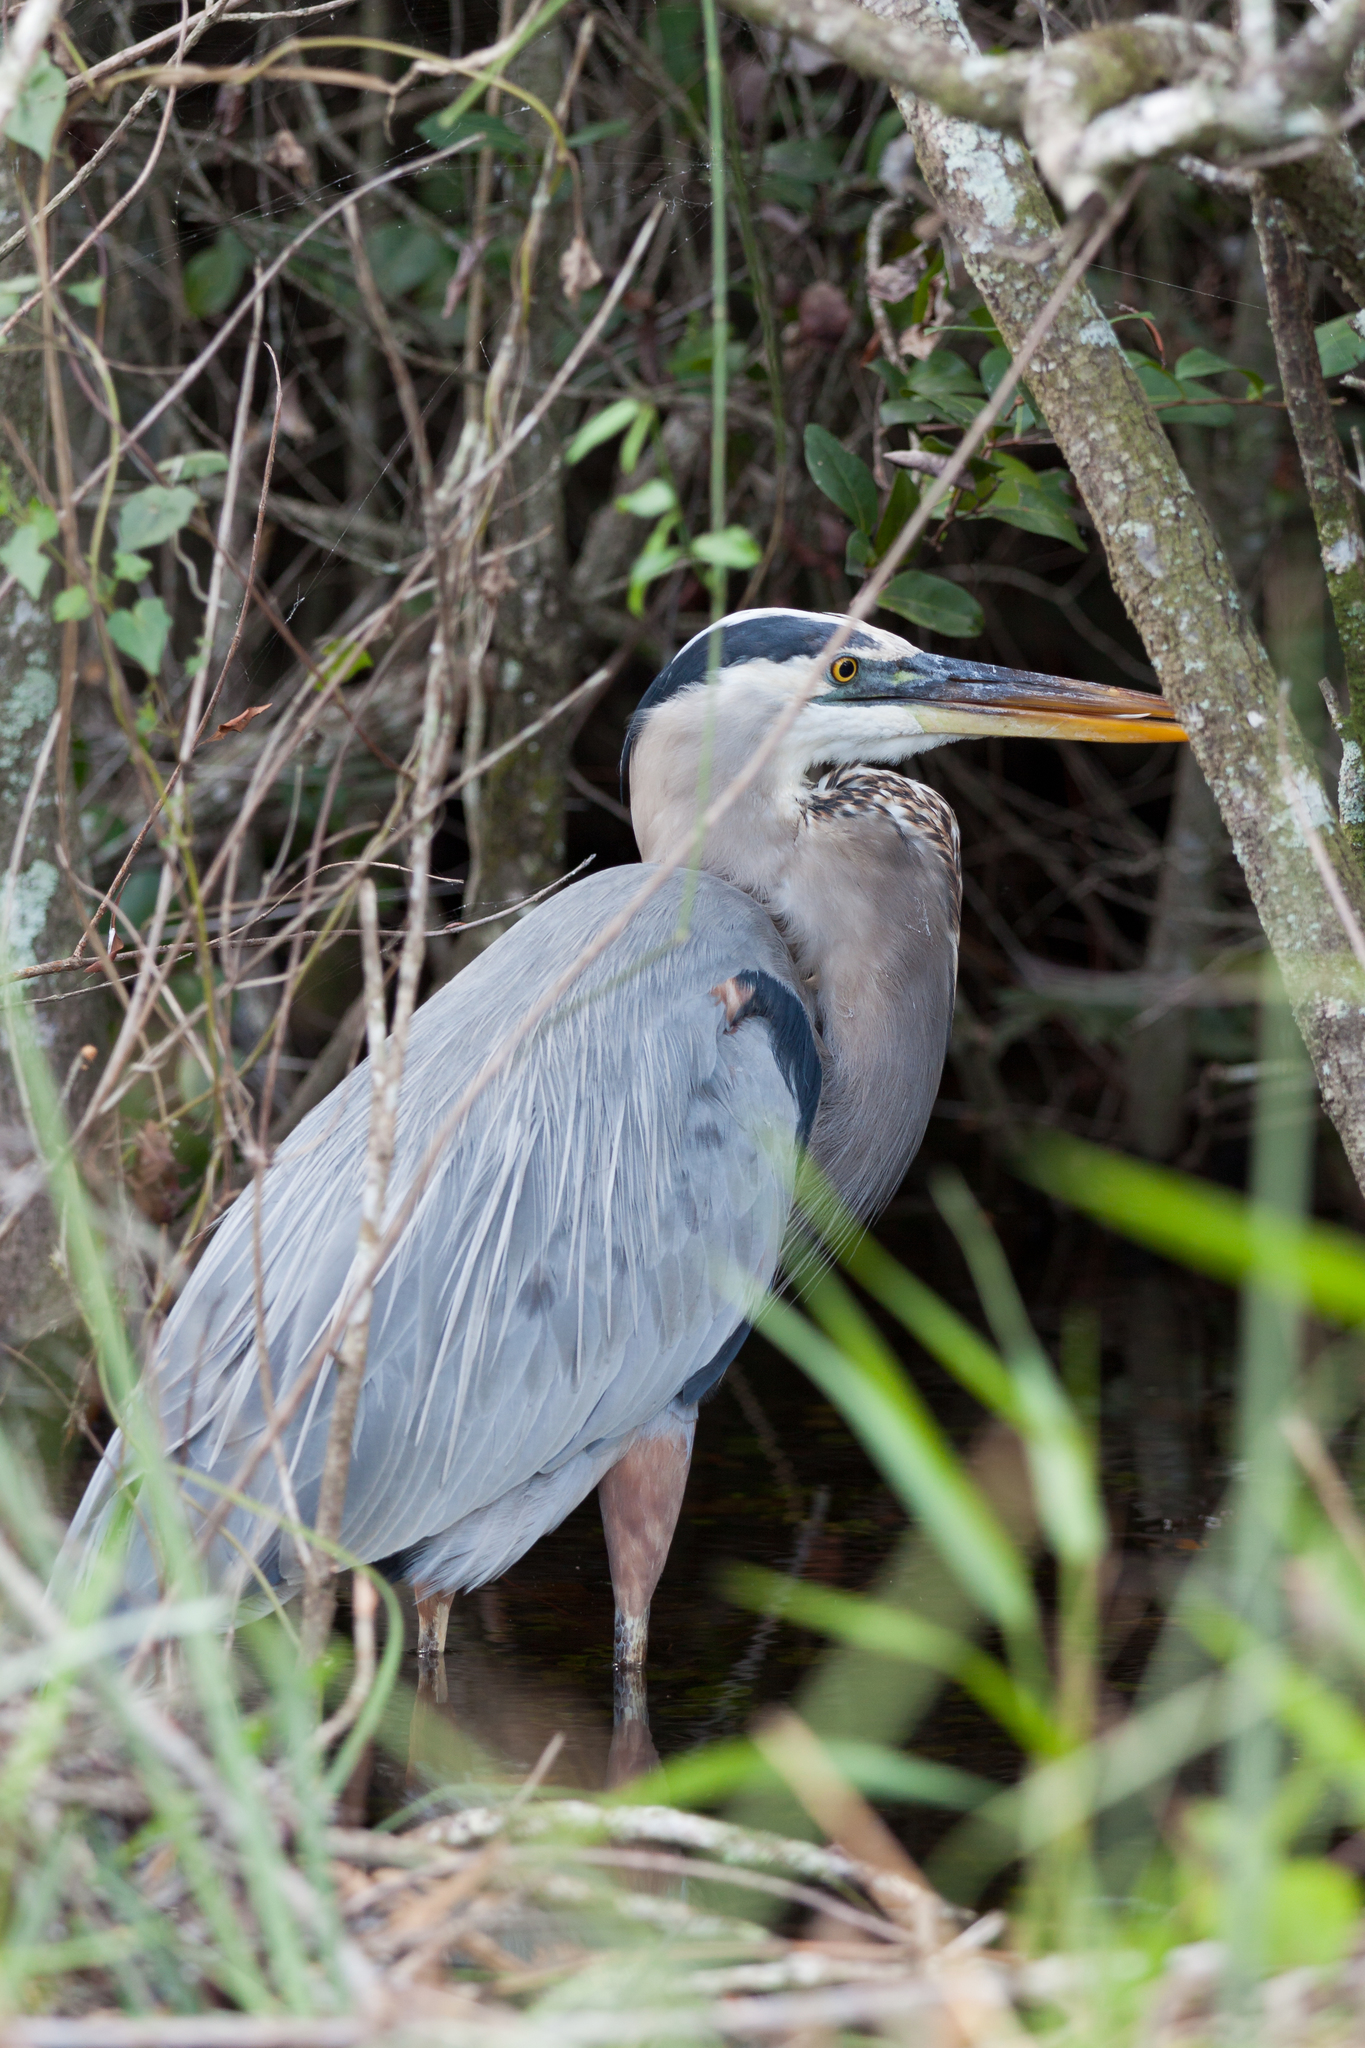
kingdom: Animalia
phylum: Chordata
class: Aves
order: Pelecaniformes
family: Ardeidae
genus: Ardea
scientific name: Ardea herodias
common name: Great blue heron
